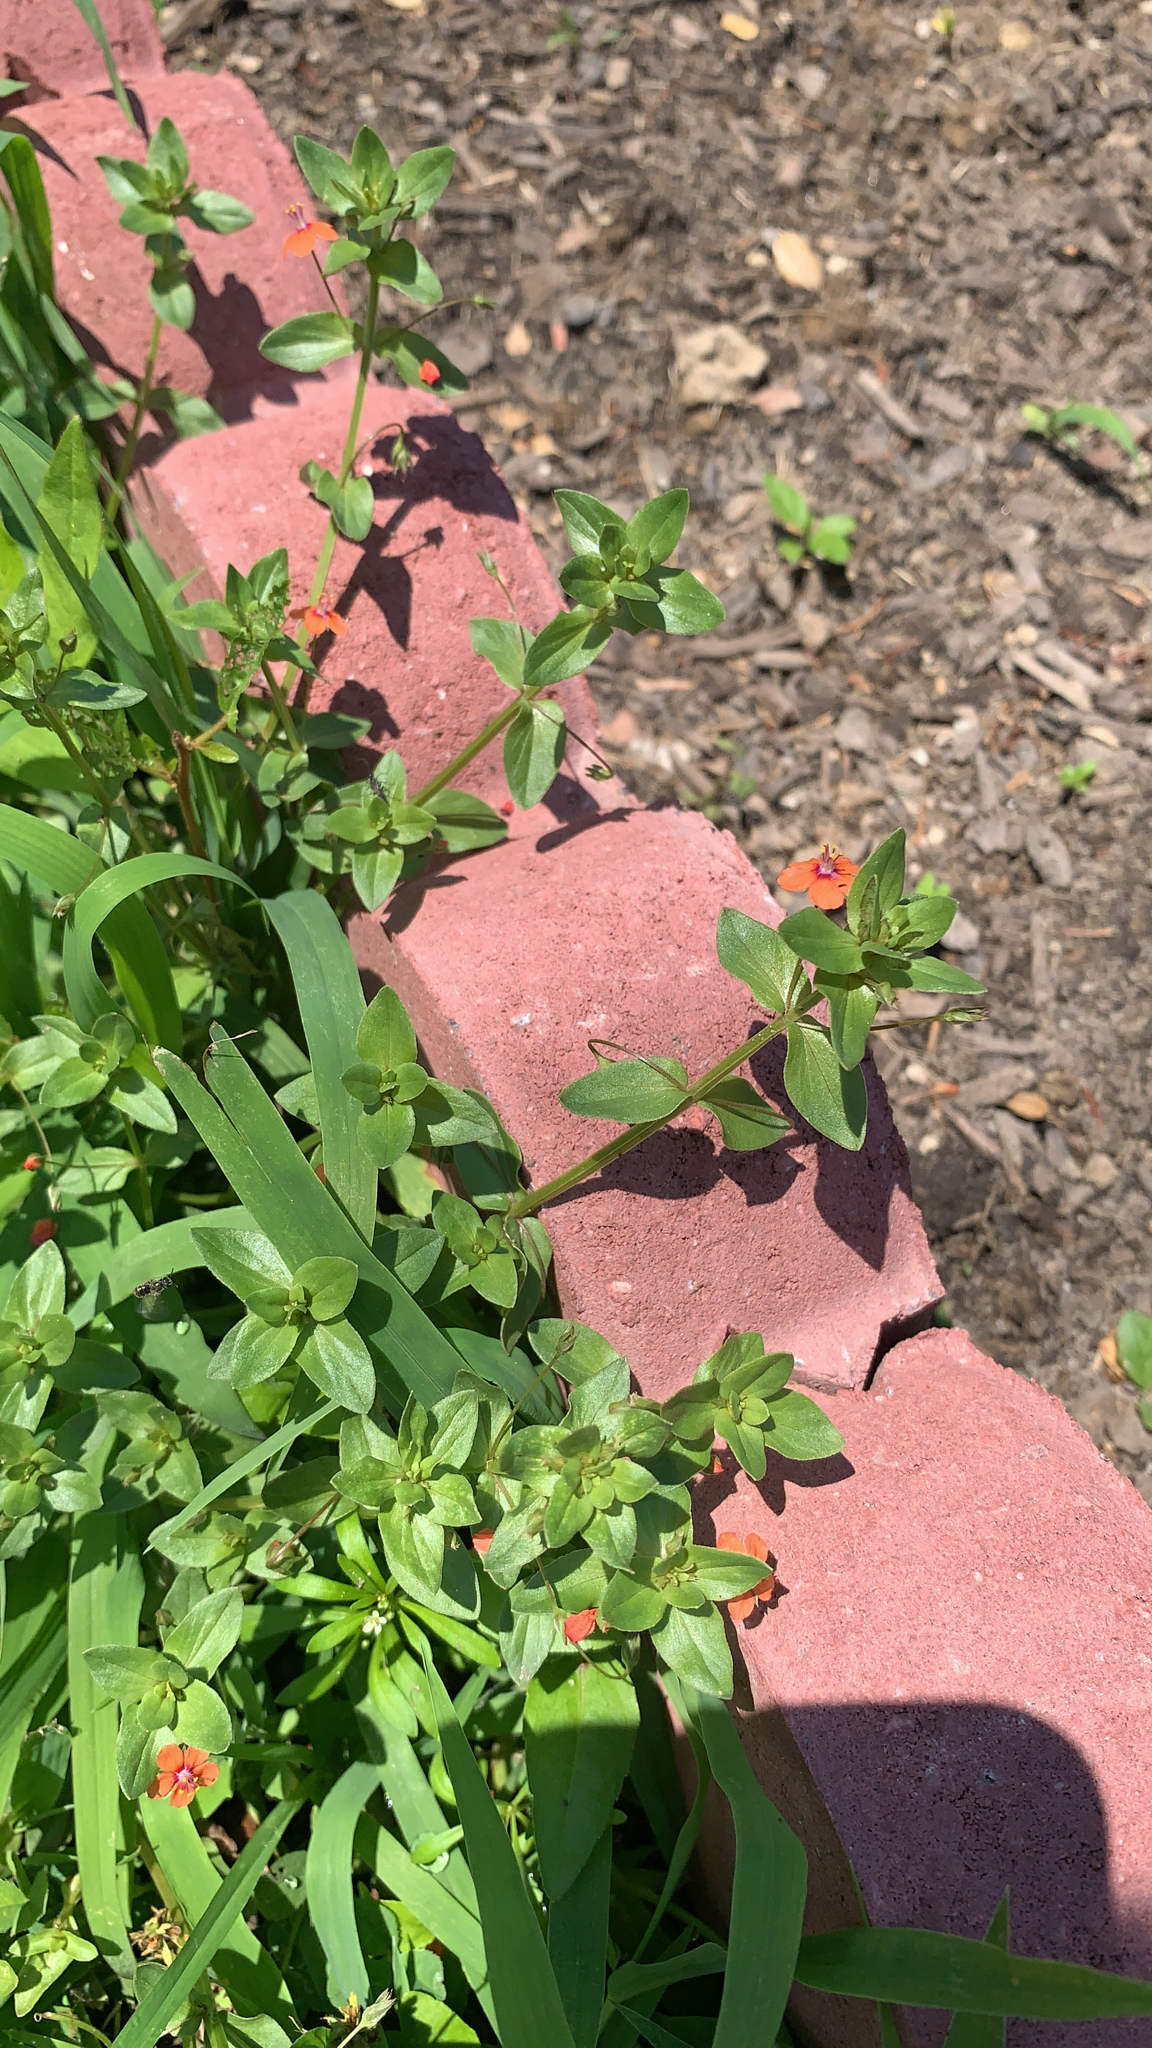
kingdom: Plantae
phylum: Tracheophyta
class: Magnoliopsida
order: Ericales
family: Primulaceae
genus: Lysimachia
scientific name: Lysimachia arvensis
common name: Scarlet pimpernel
